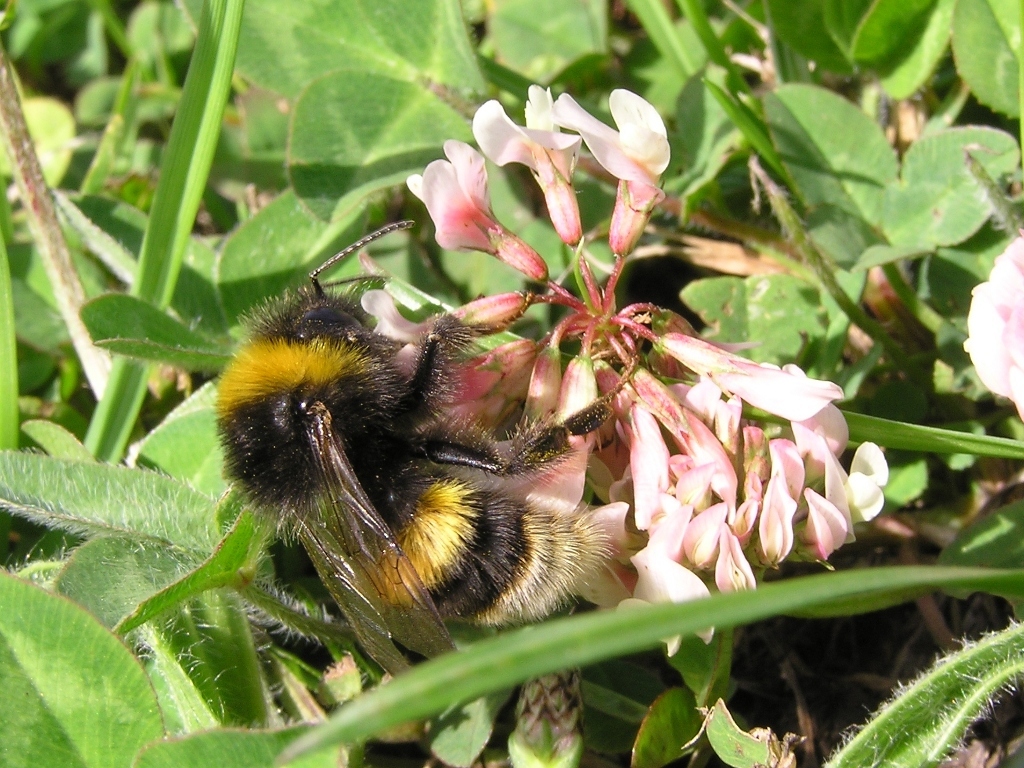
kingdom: Animalia
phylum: Arthropoda
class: Insecta
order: Hymenoptera
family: Apidae
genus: Bombus
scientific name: Bombus terrestris
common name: Buff-tailed bumblebee
